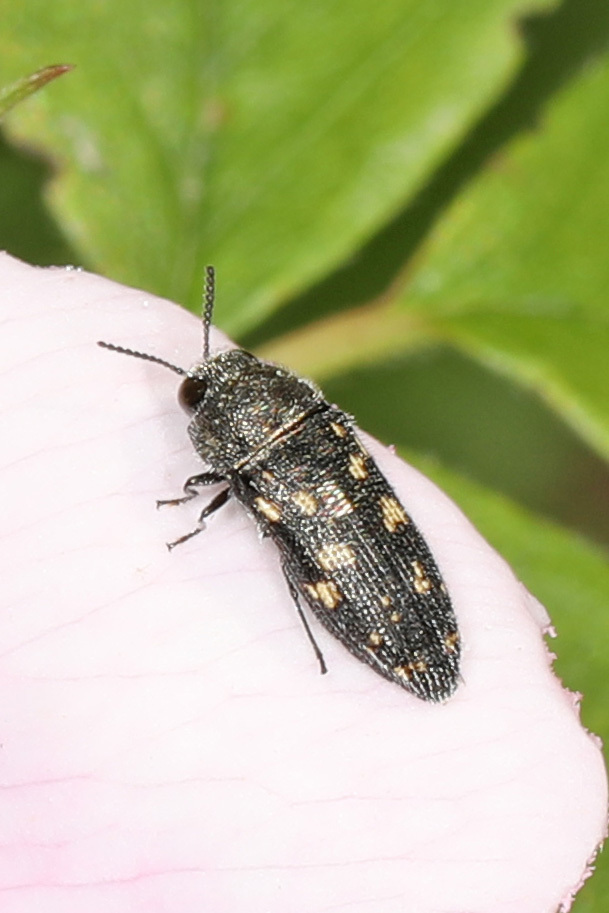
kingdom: Animalia
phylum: Arthropoda
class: Insecta
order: Coleoptera
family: Buprestidae
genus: Acmaeodera
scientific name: Acmaeodera tubulus
